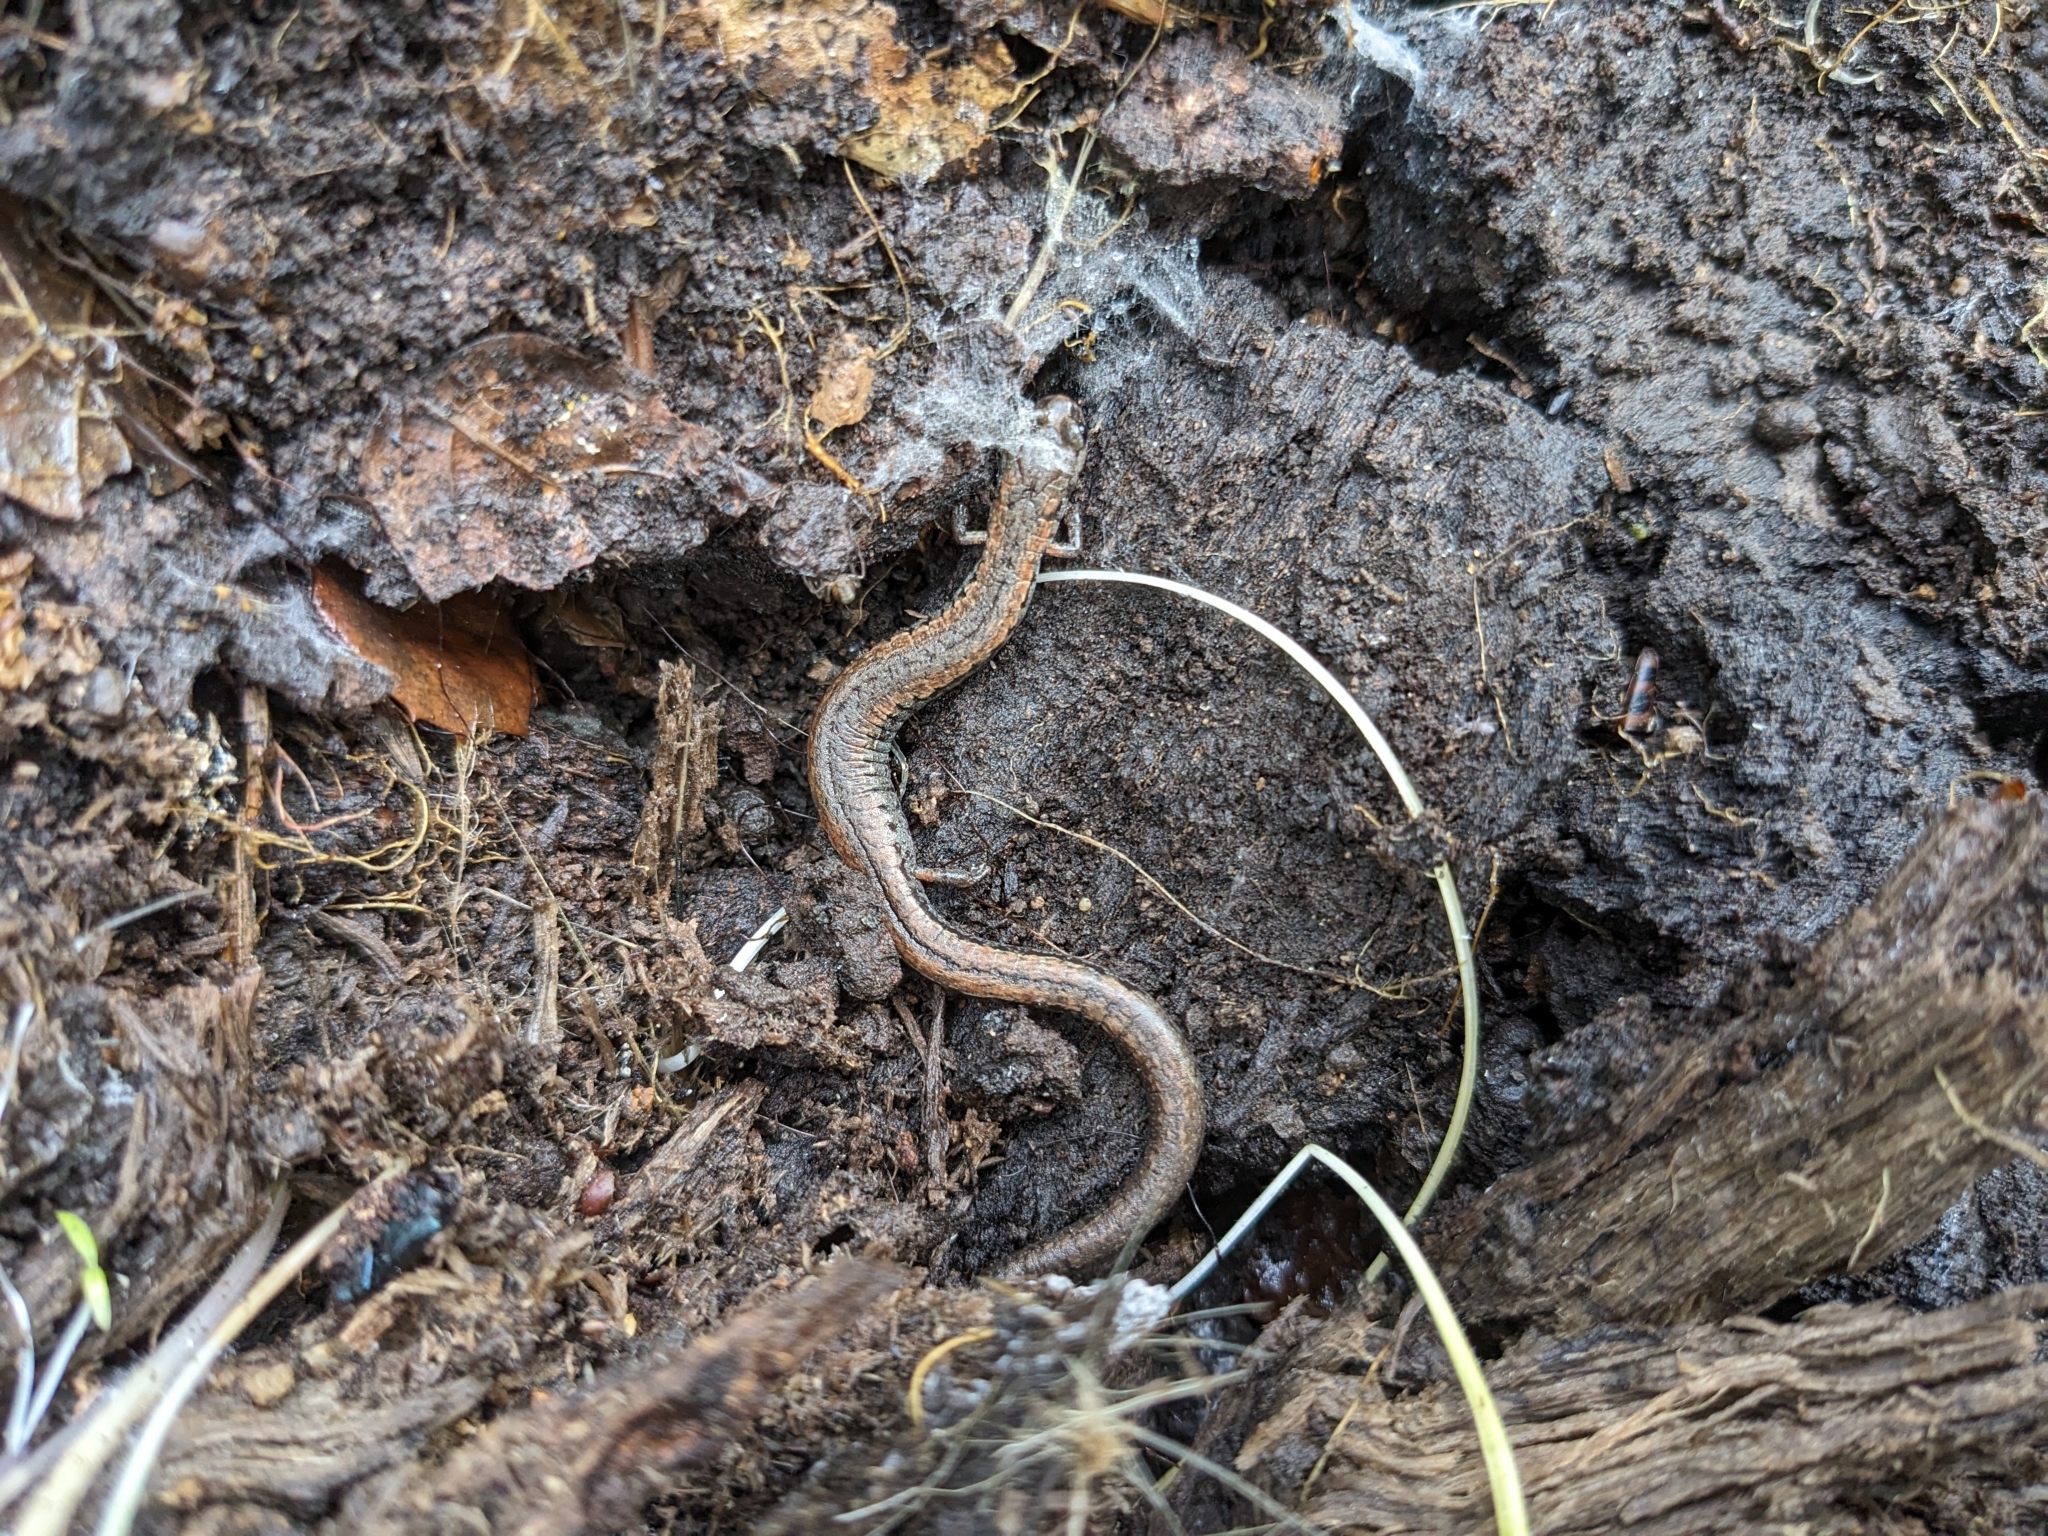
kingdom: Animalia
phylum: Chordata
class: Amphibia
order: Caudata
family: Plethodontidae
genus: Batrachoseps
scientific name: Batrachoseps attenuatus
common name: California slender salamander
